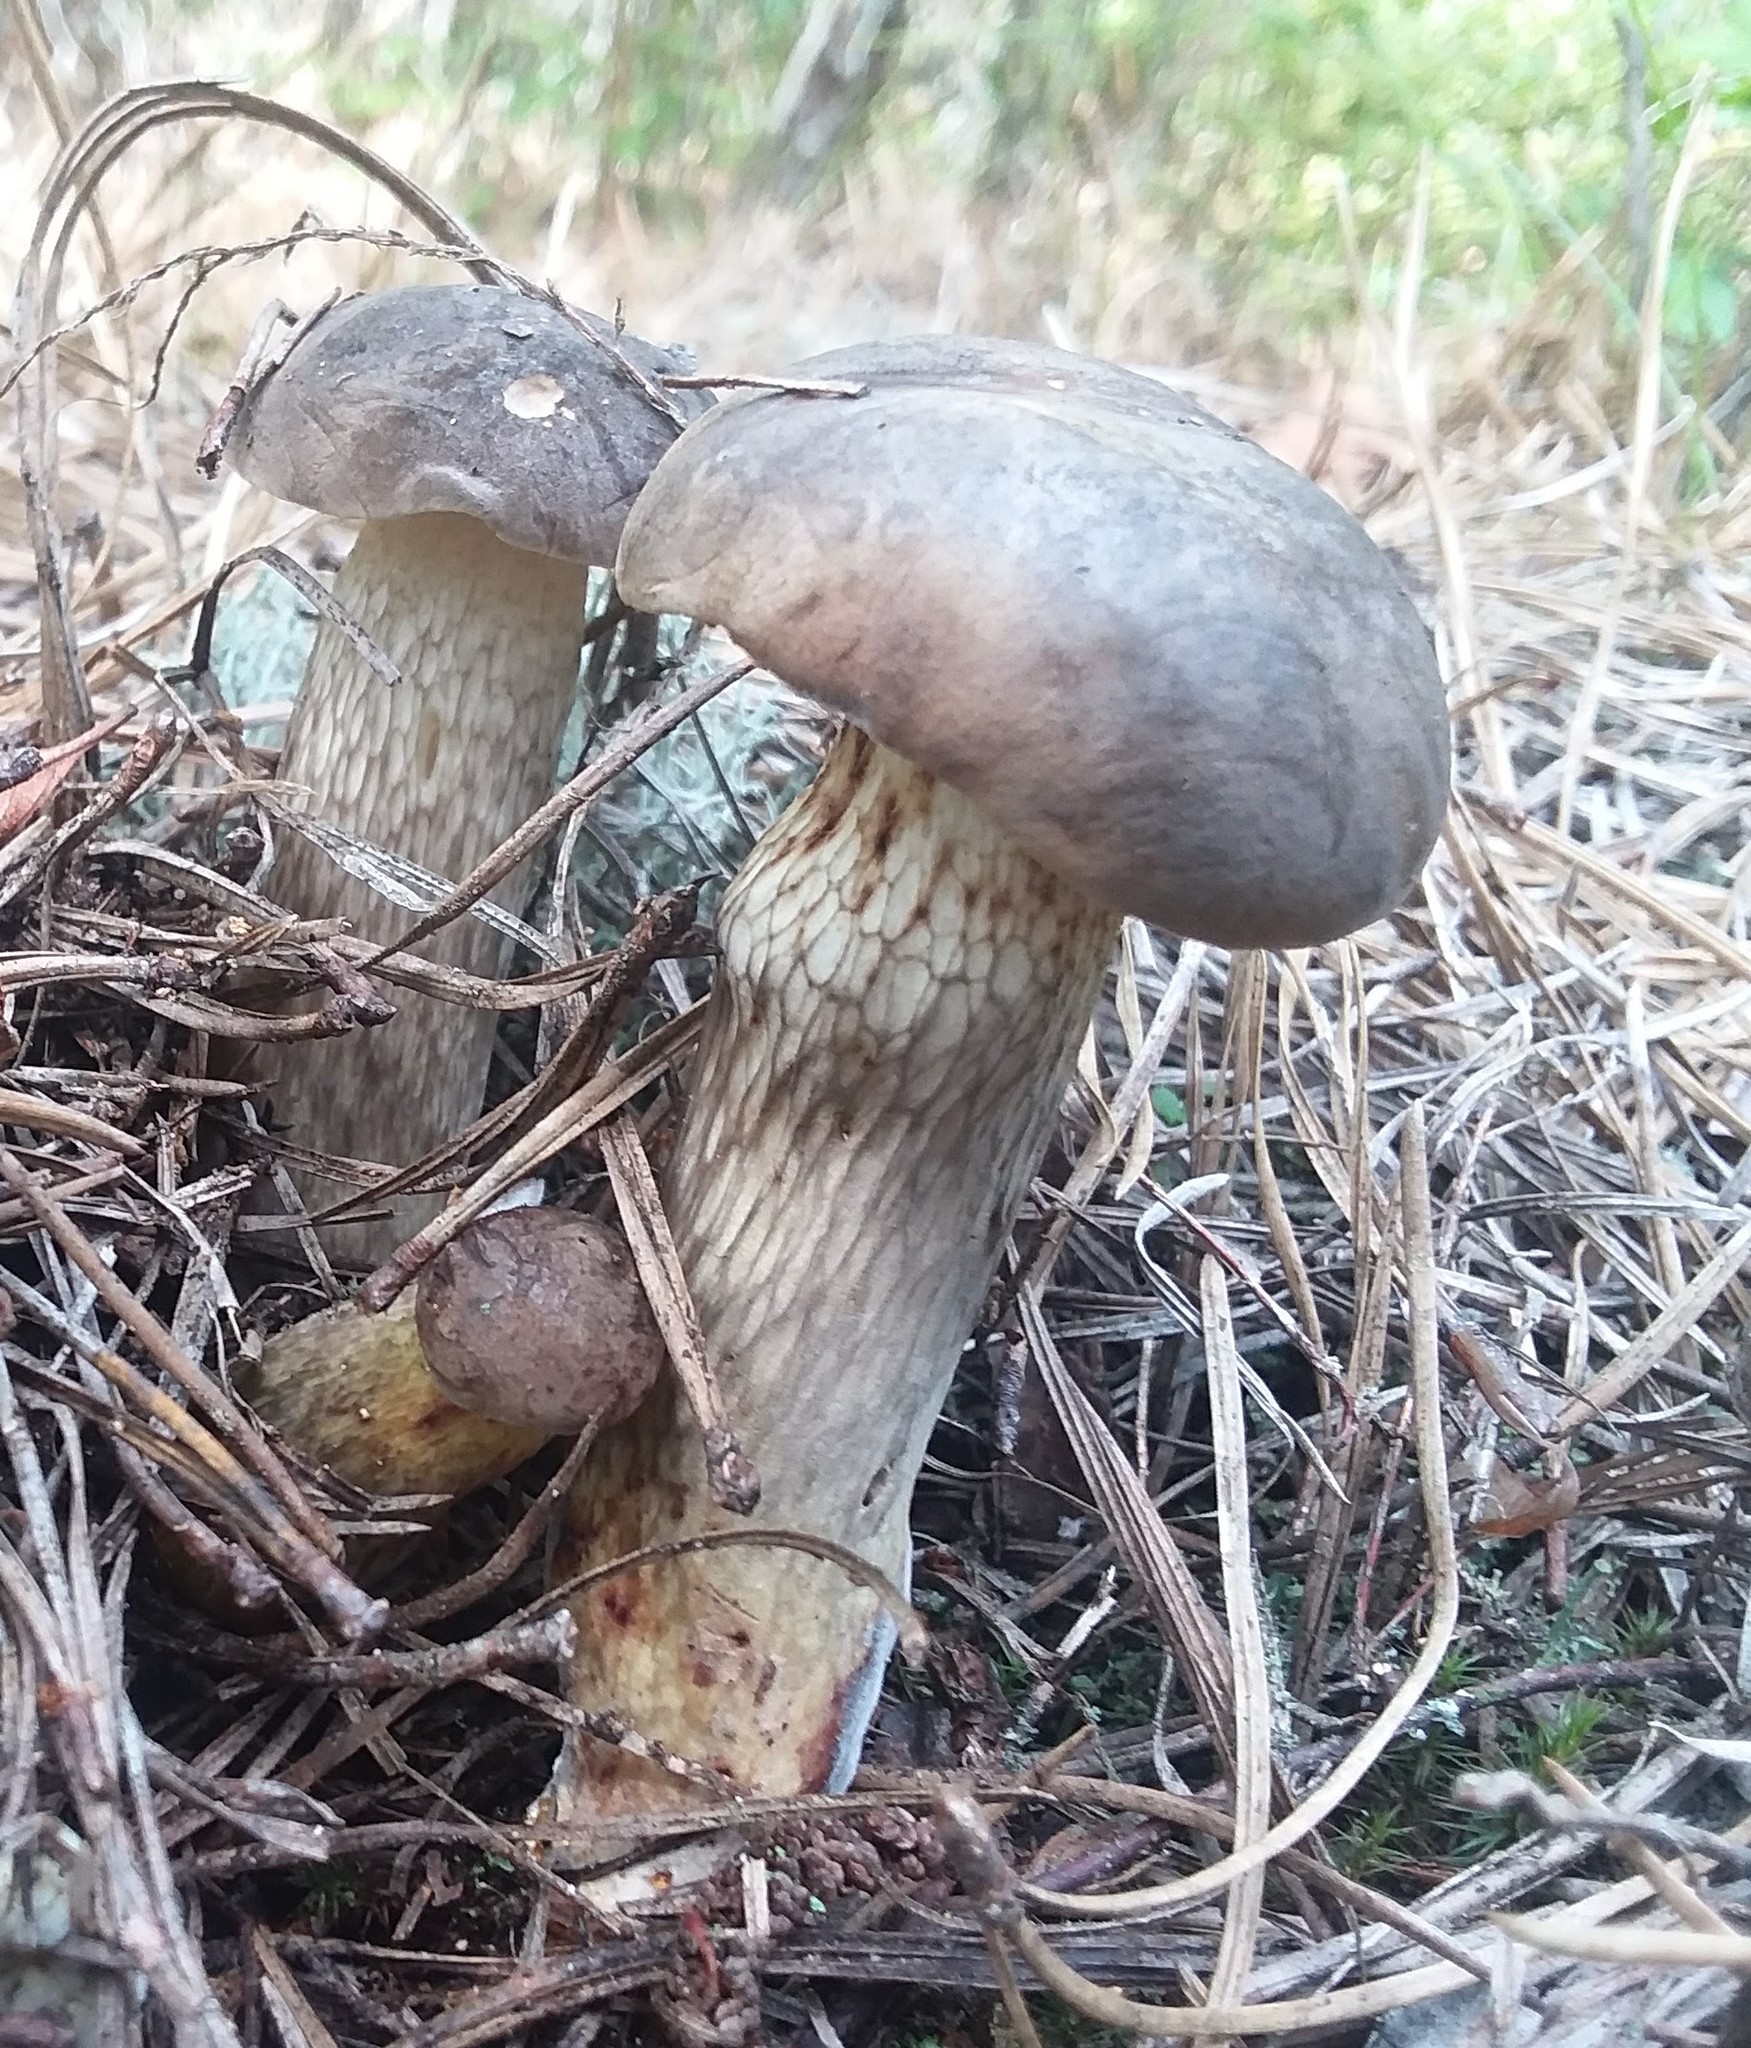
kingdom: Fungi
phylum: Basidiomycota
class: Agaricomycetes
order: Boletales
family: Boletaceae
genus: Retiboletus
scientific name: Retiboletus griseus
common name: Grey bolete
